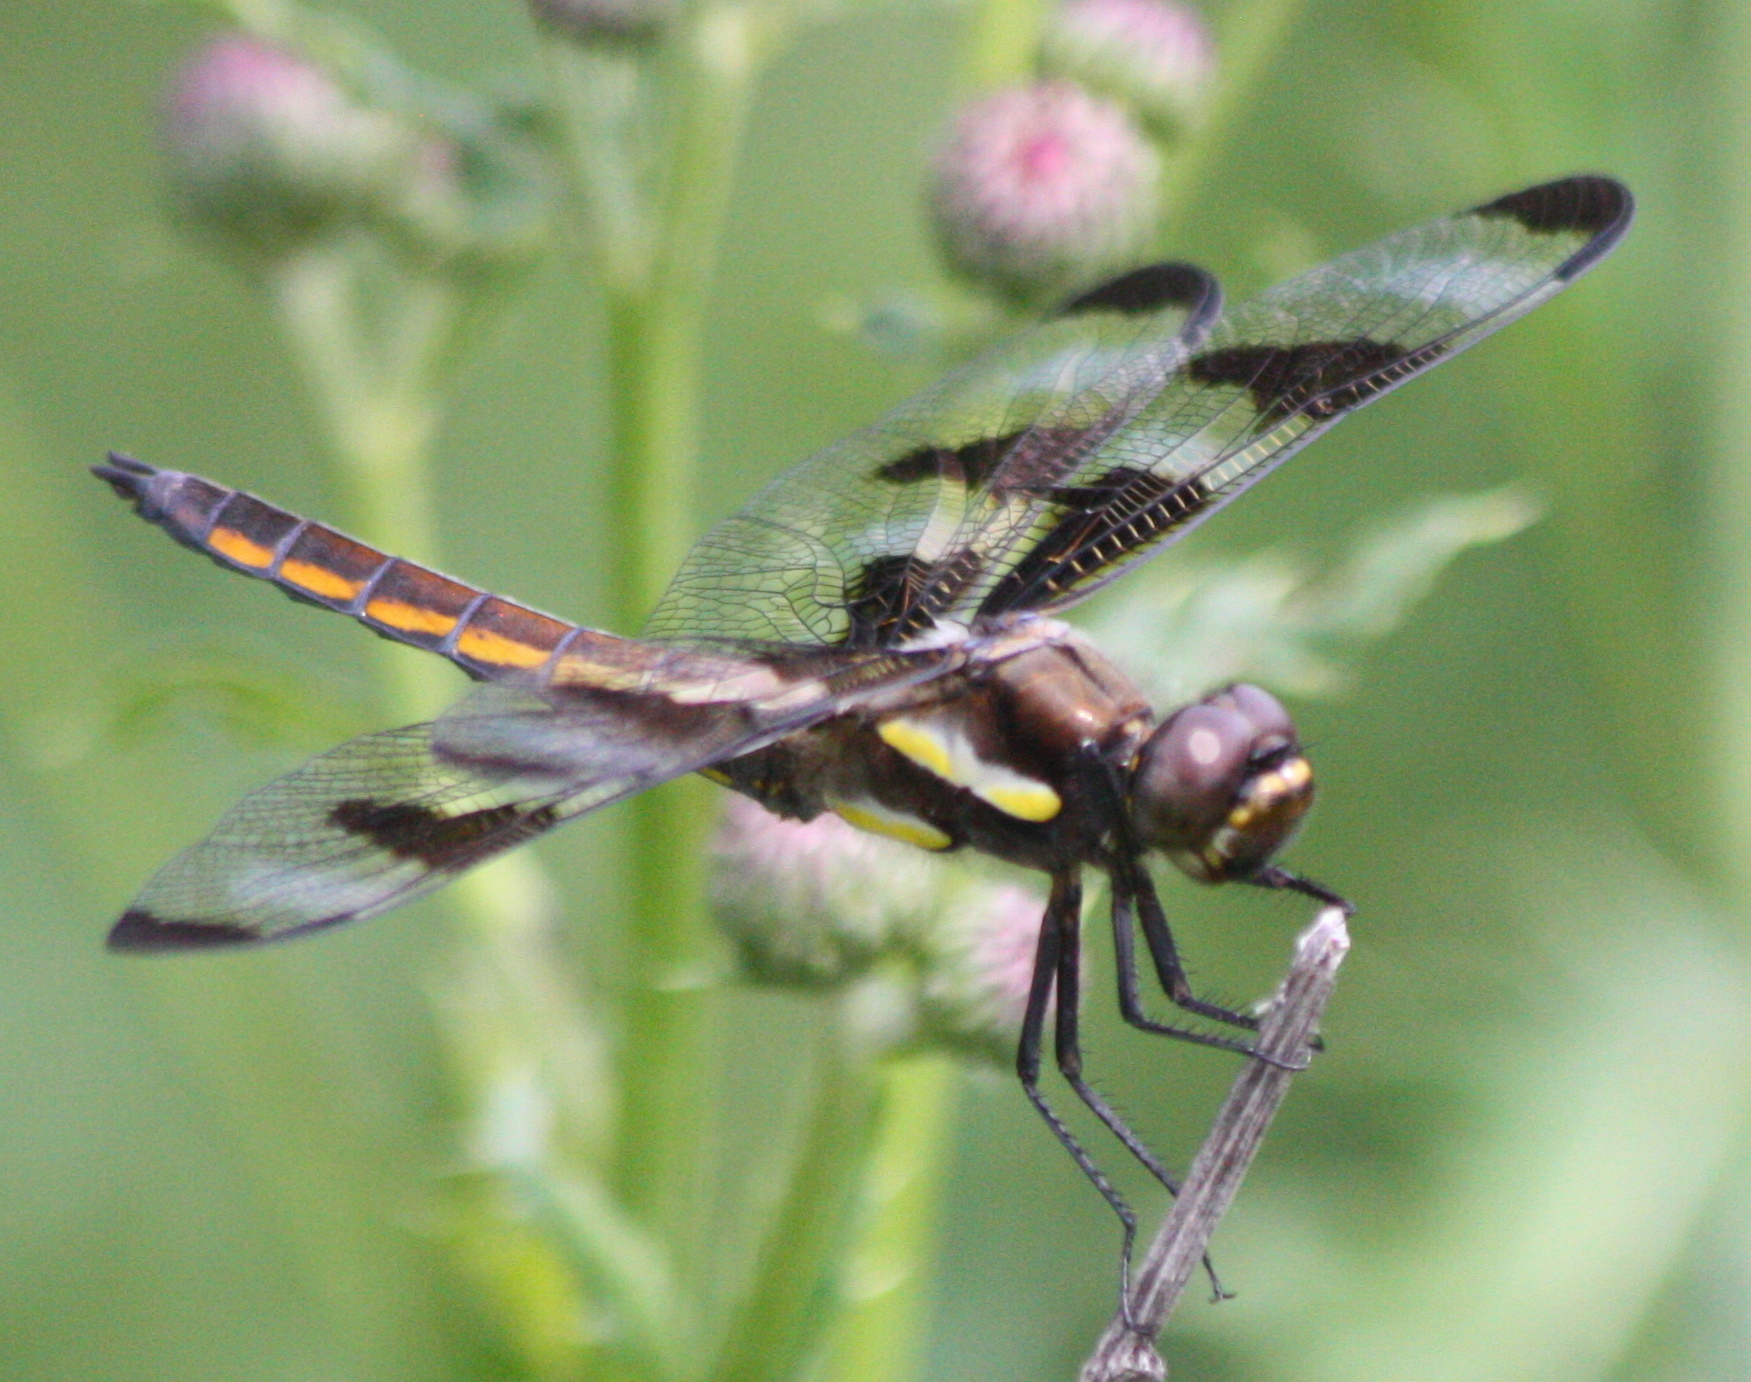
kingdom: Animalia
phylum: Arthropoda
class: Insecta
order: Odonata
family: Libellulidae
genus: Libellula
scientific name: Libellula pulchella
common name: Twelve-spotted skimmer
